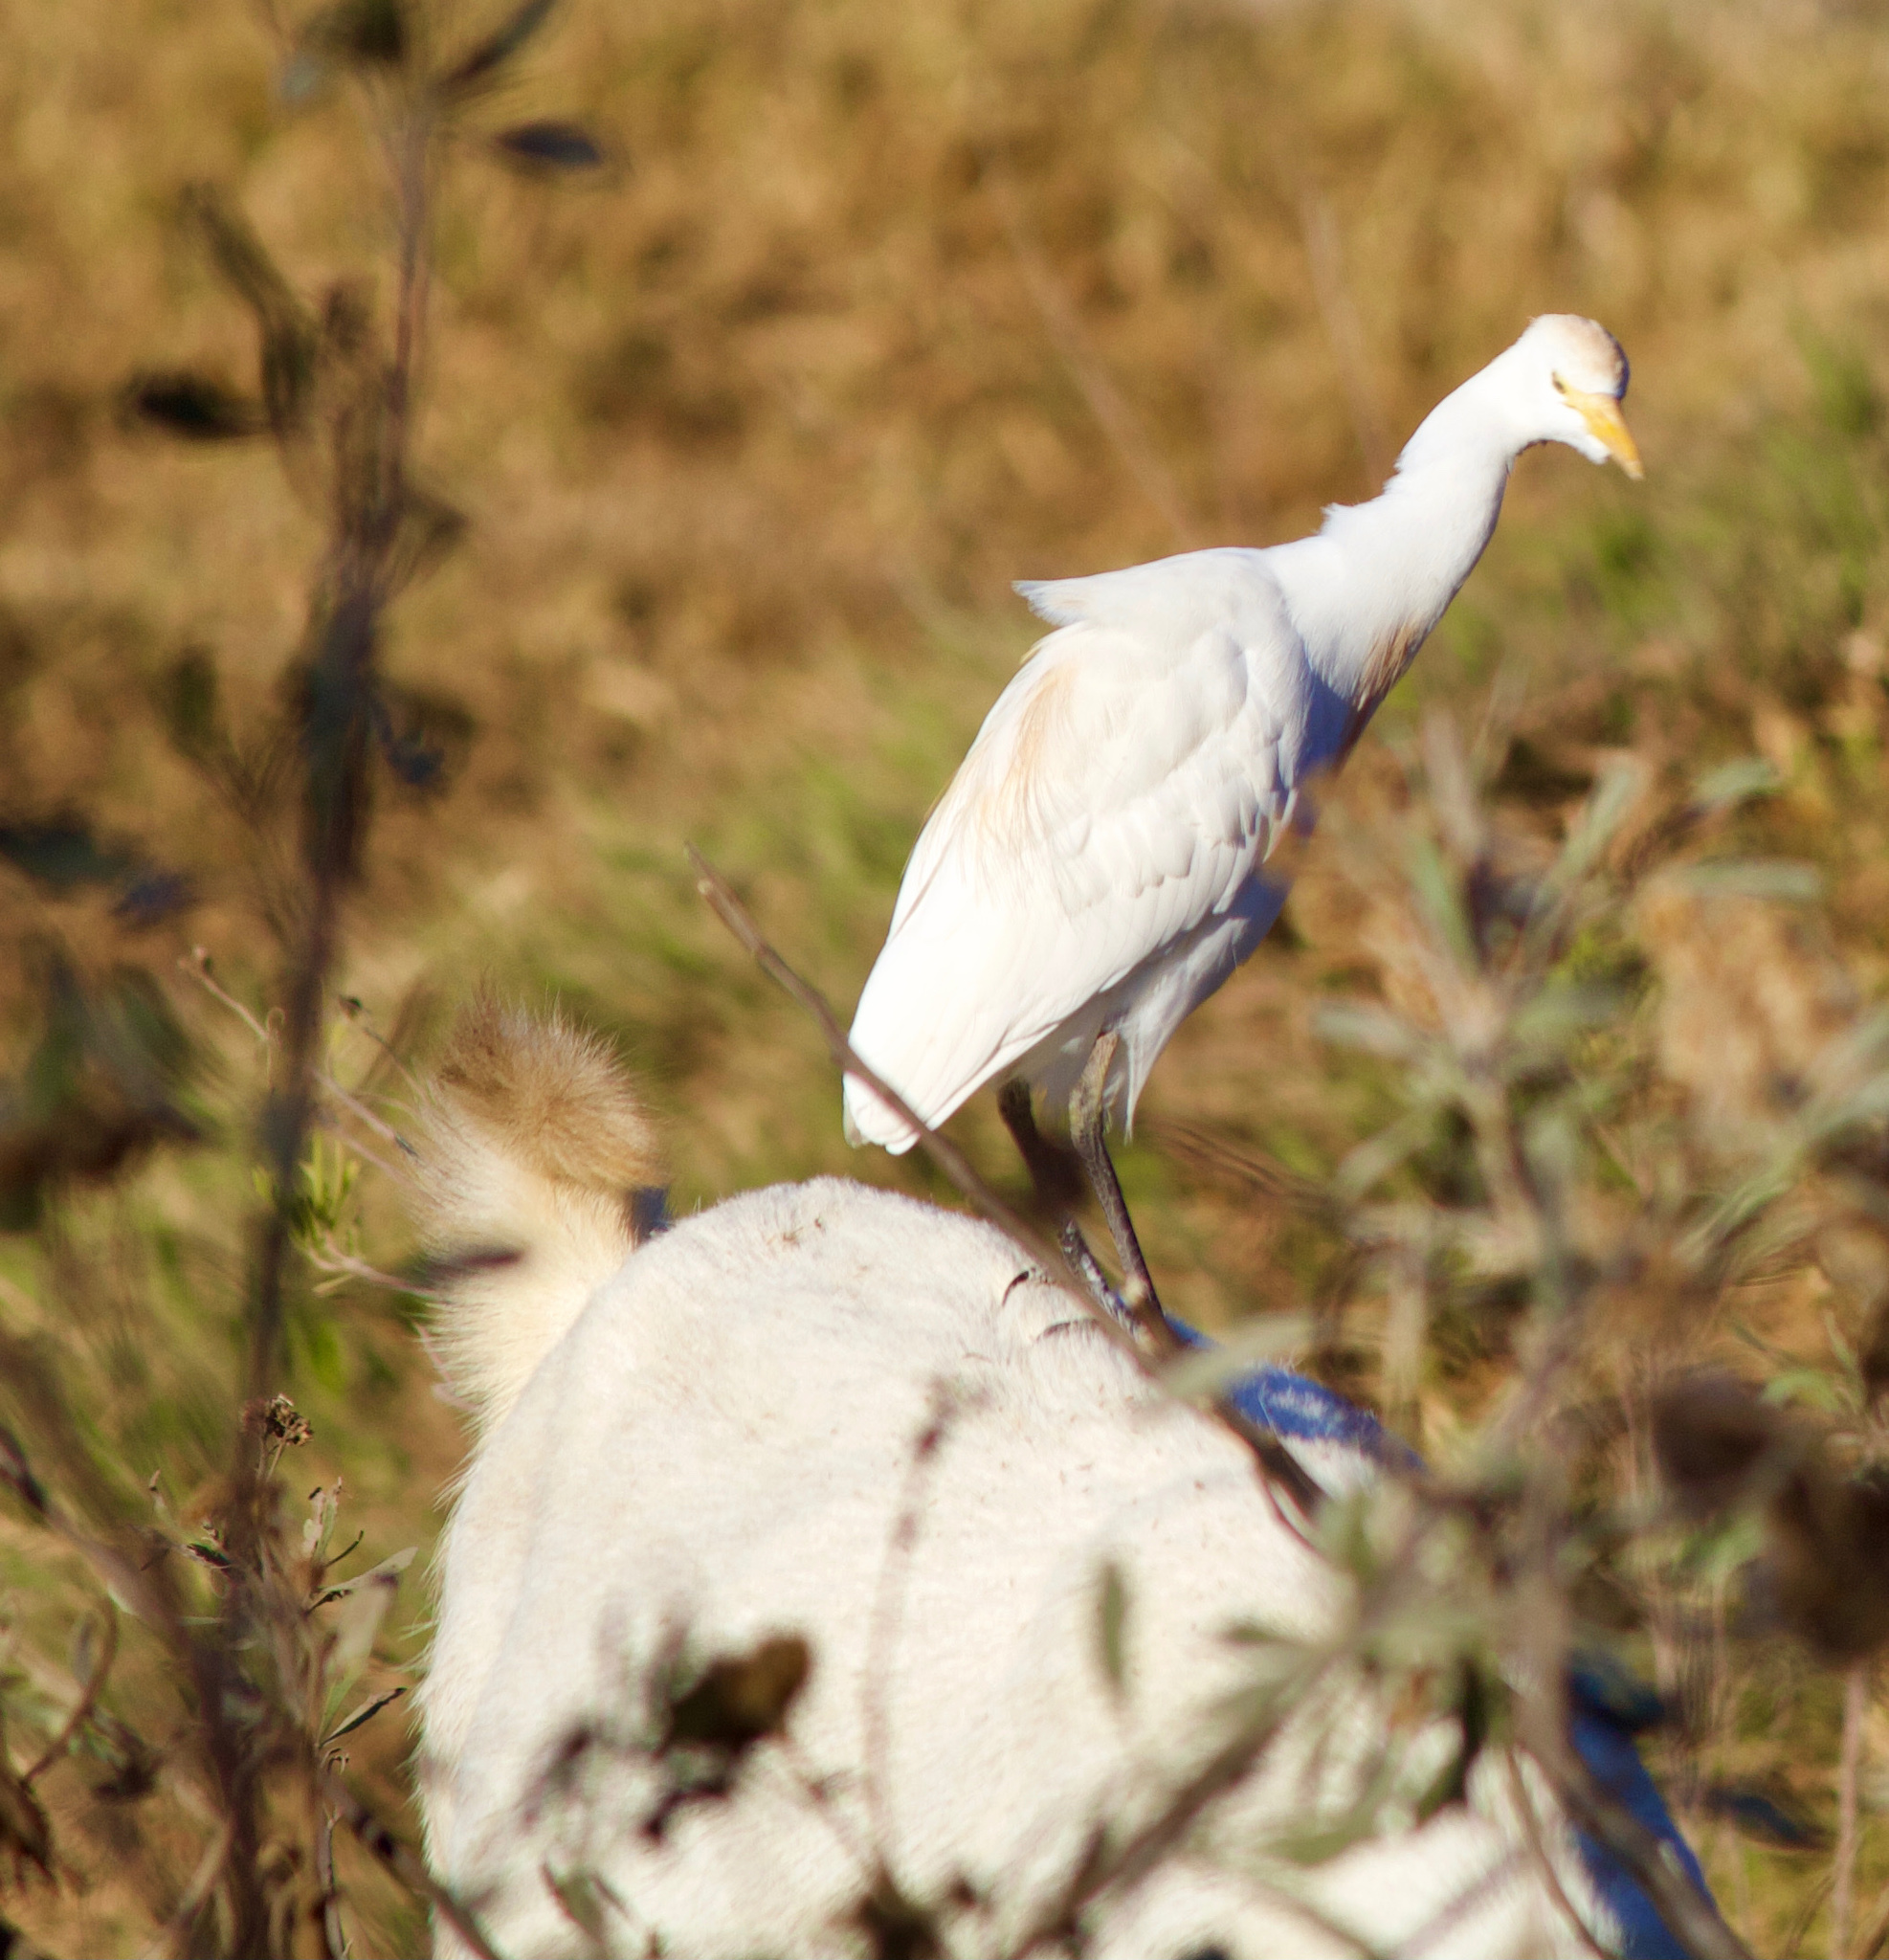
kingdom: Animalia
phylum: Chordata
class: Aves
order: Pelecaniformes
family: Ardeidae
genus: Bubulcus
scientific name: Bubulcus ibis
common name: Cattle egret
